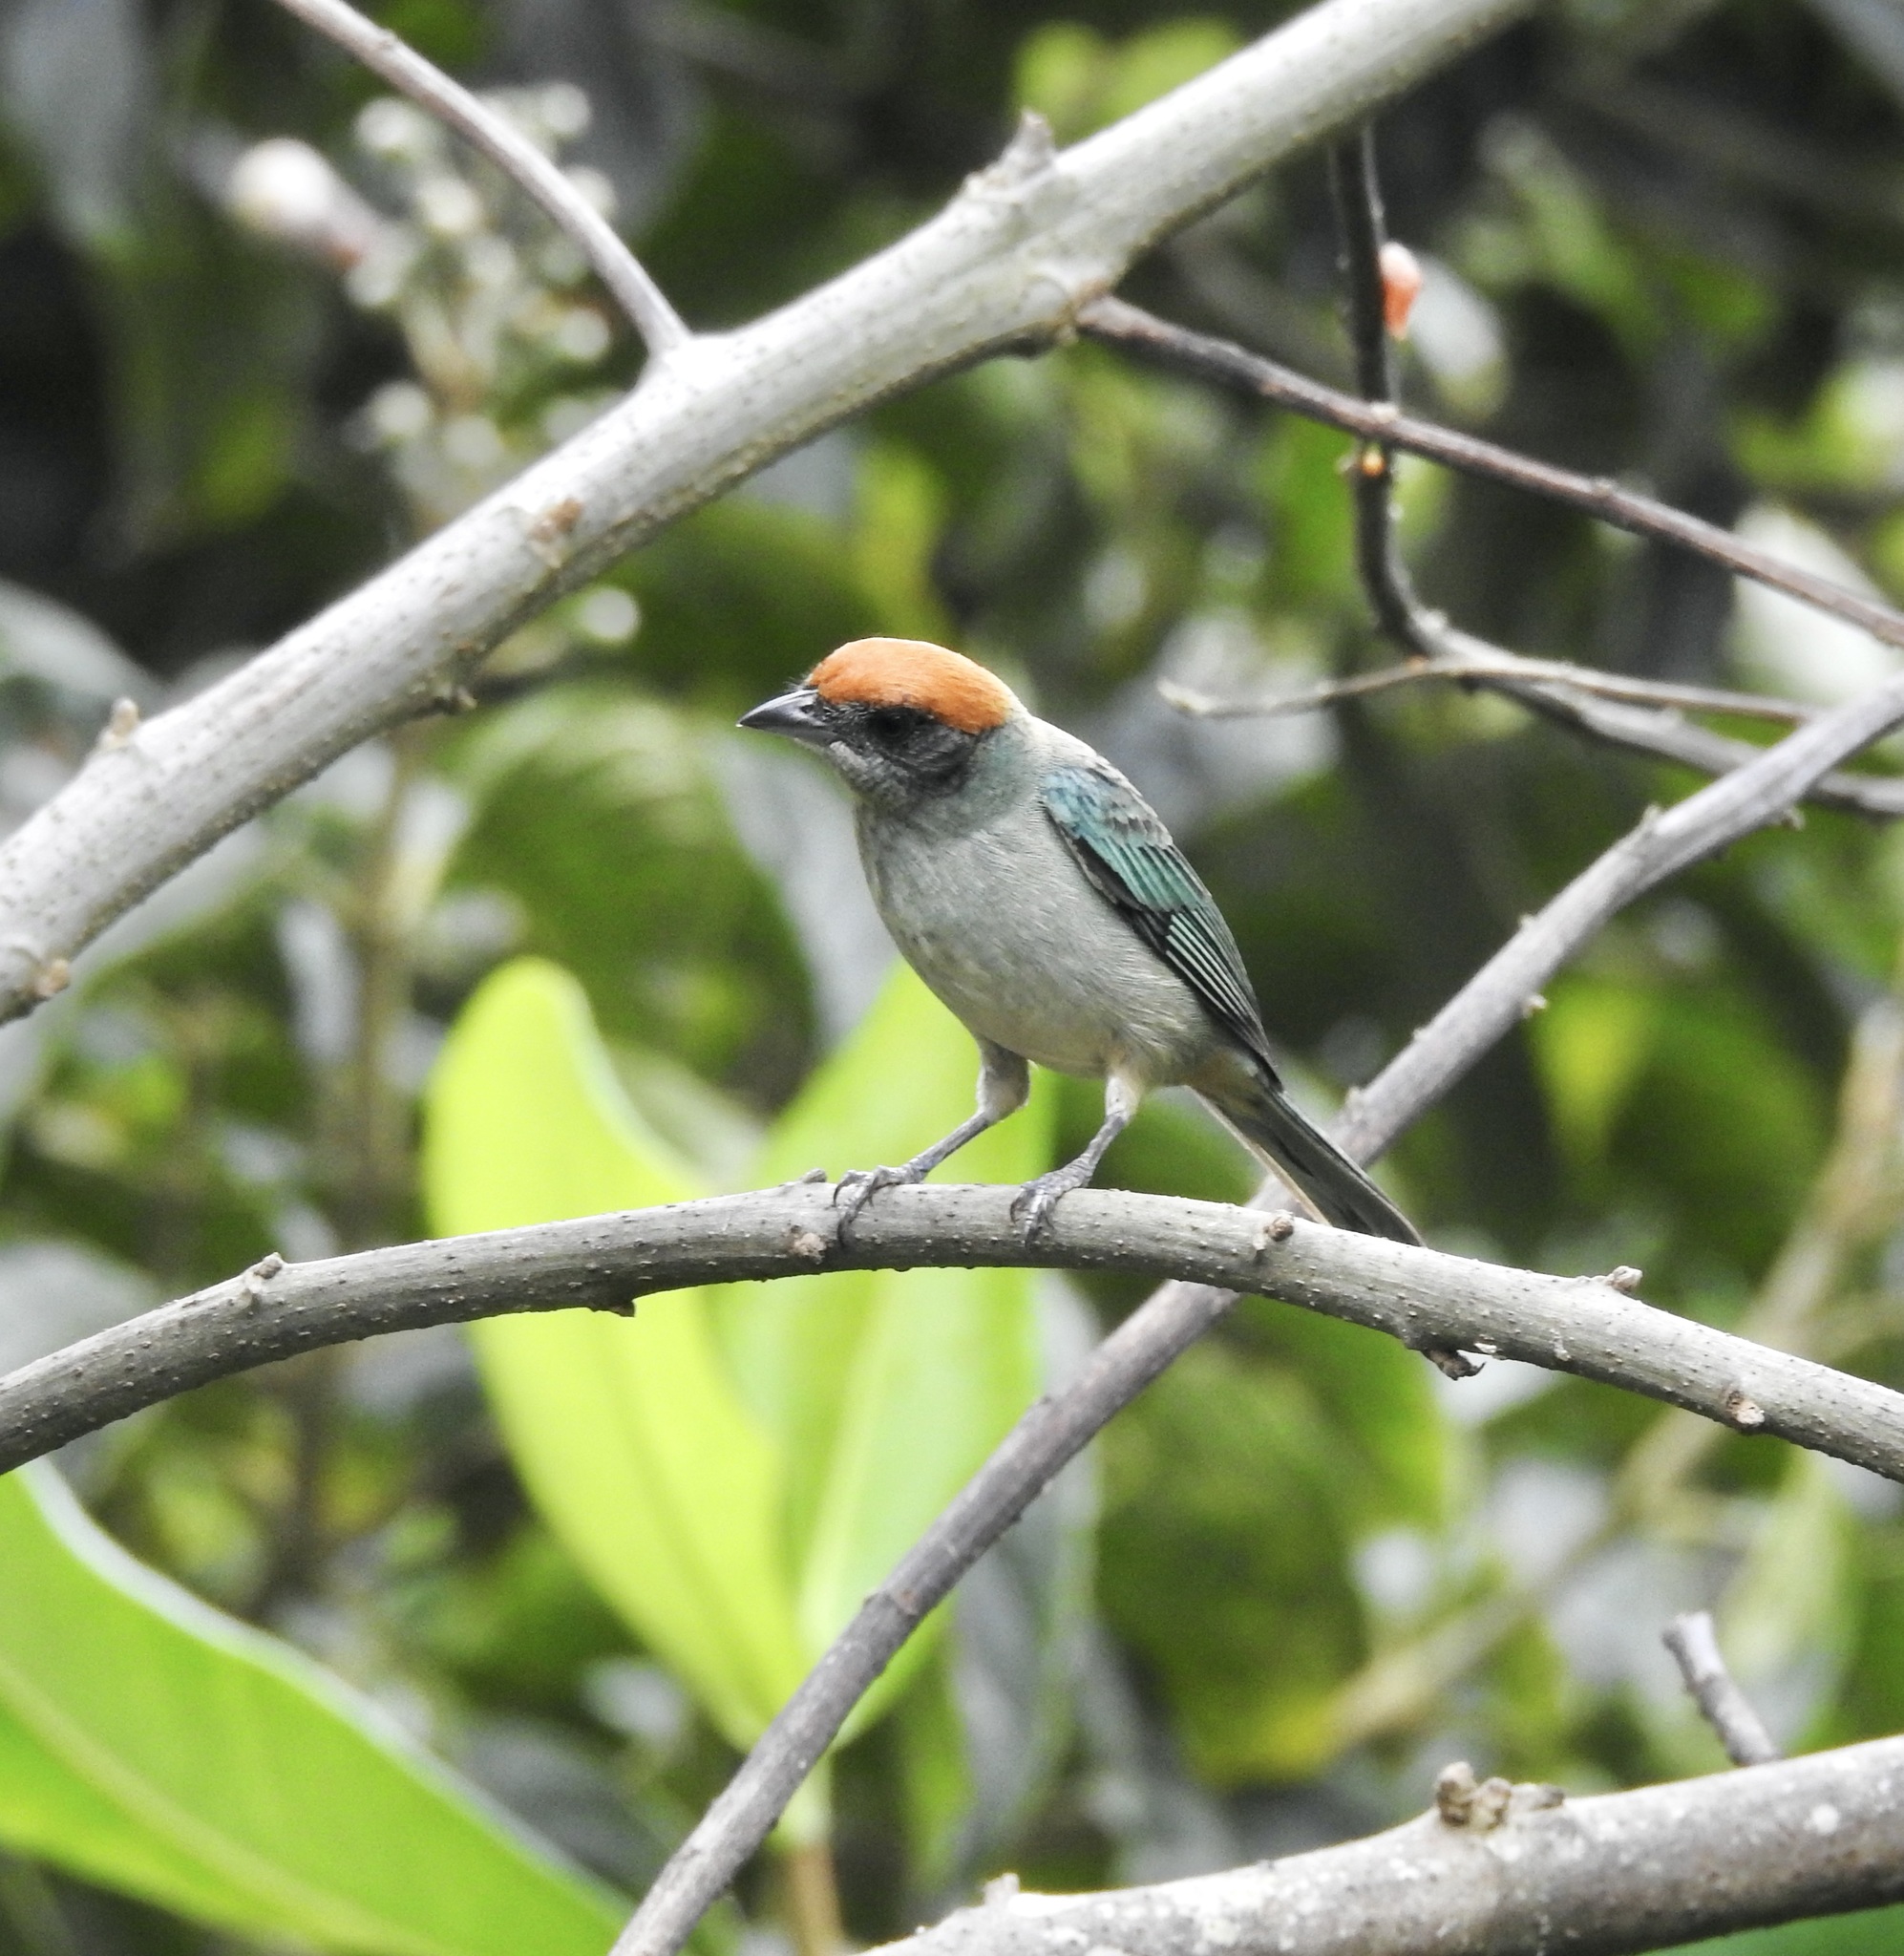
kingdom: Animalia
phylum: Chordata
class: Aves
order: Passeriformes
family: Thraupidae
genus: Stilpnia
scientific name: Stilpnia vitriolina
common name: Scrub tanager
